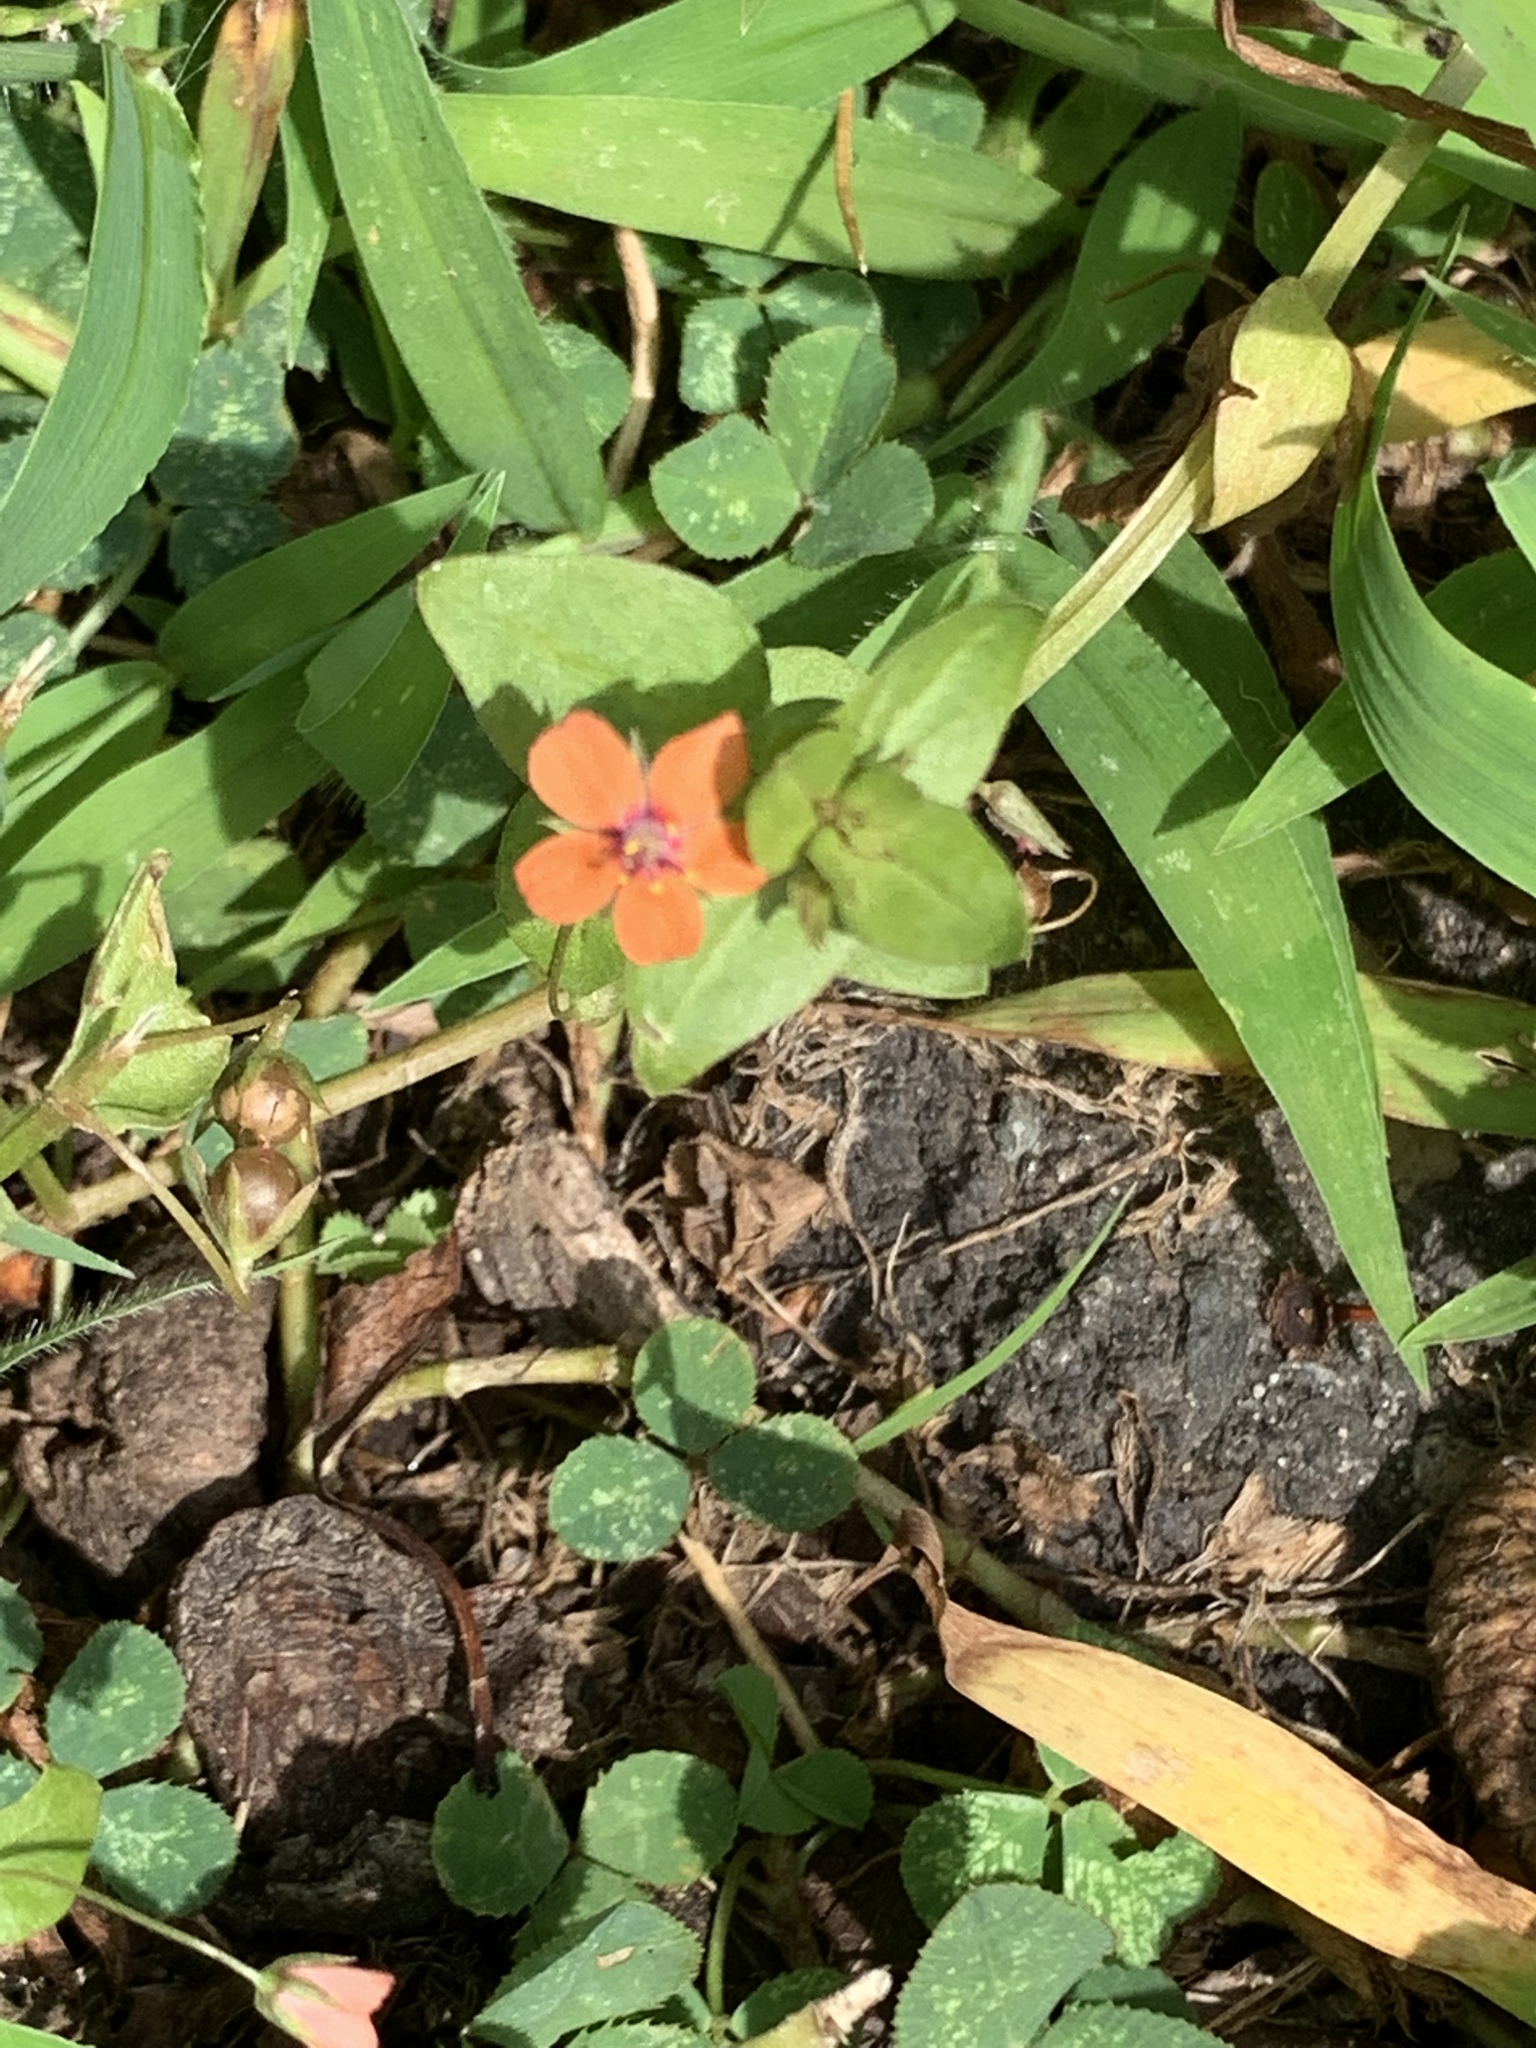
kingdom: Plantae
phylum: Tracheophyta
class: Magnoliopsida
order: Ericales
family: Primulaceae
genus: Lysimachia
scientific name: Lysimachia arvensis
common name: Scarlet pimpernel
